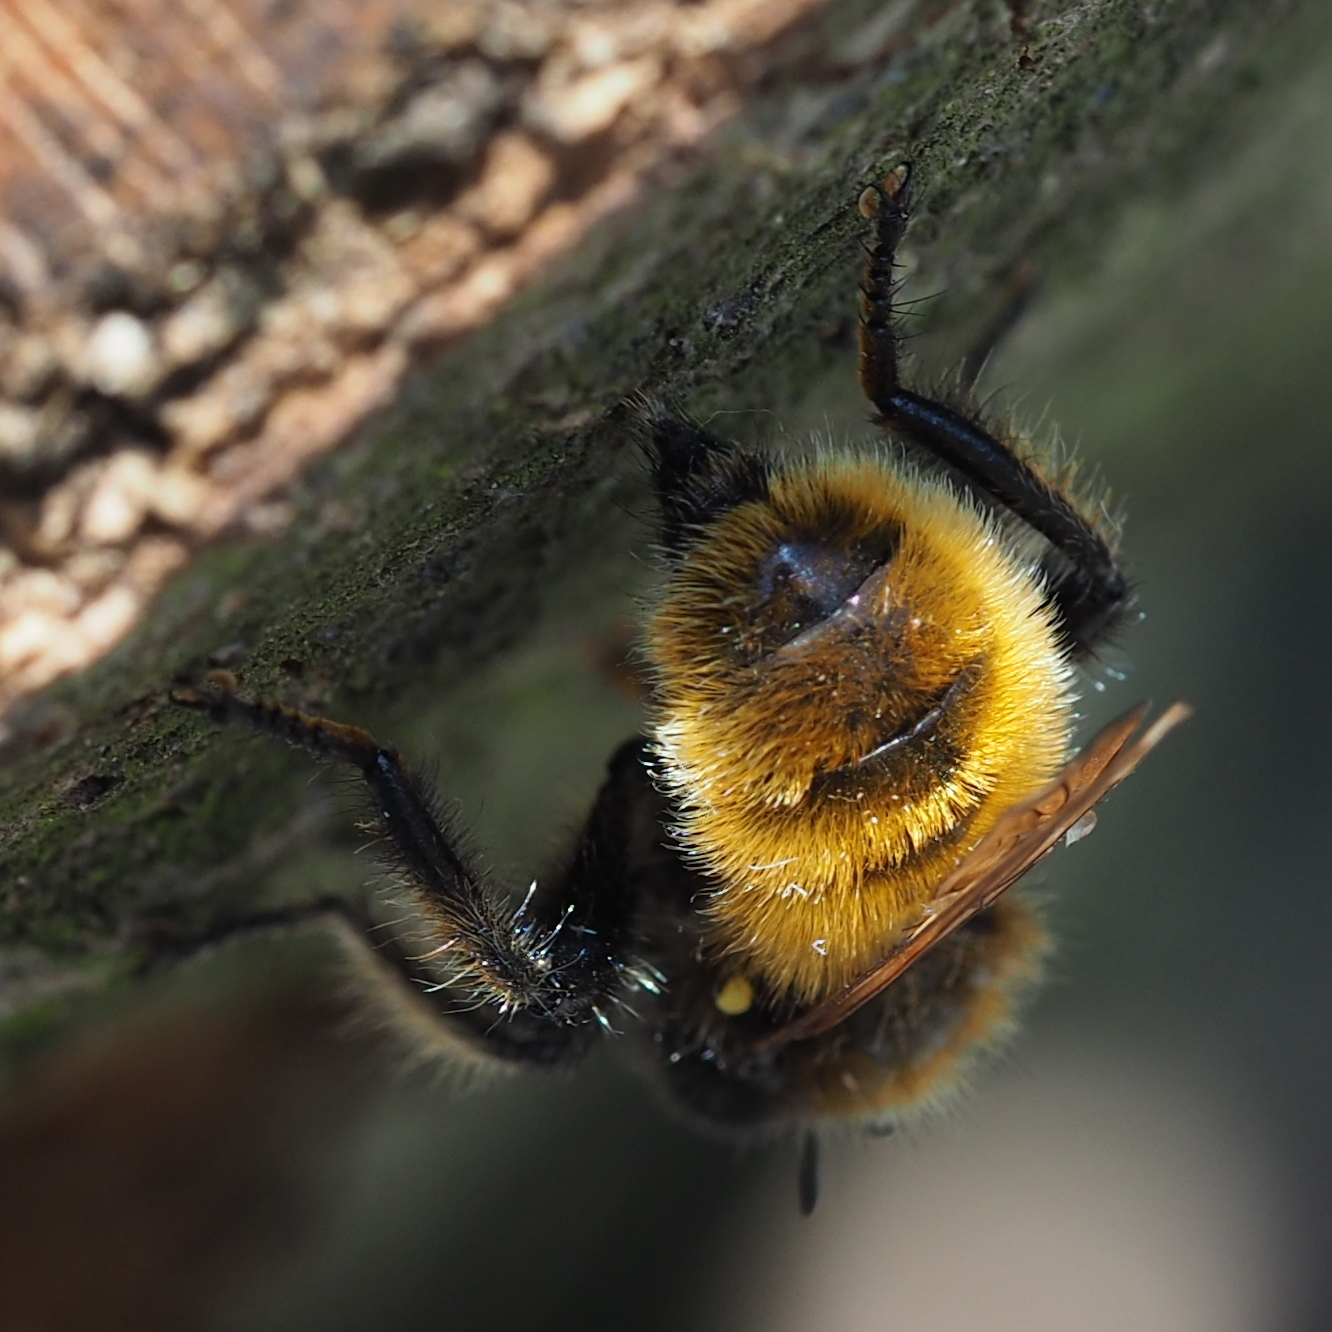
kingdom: Animalia
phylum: Arthropoda
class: Insecta
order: Diptera
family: Asilidae
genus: Laphria
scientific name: Laphria flava
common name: Bumblebee robberfly
